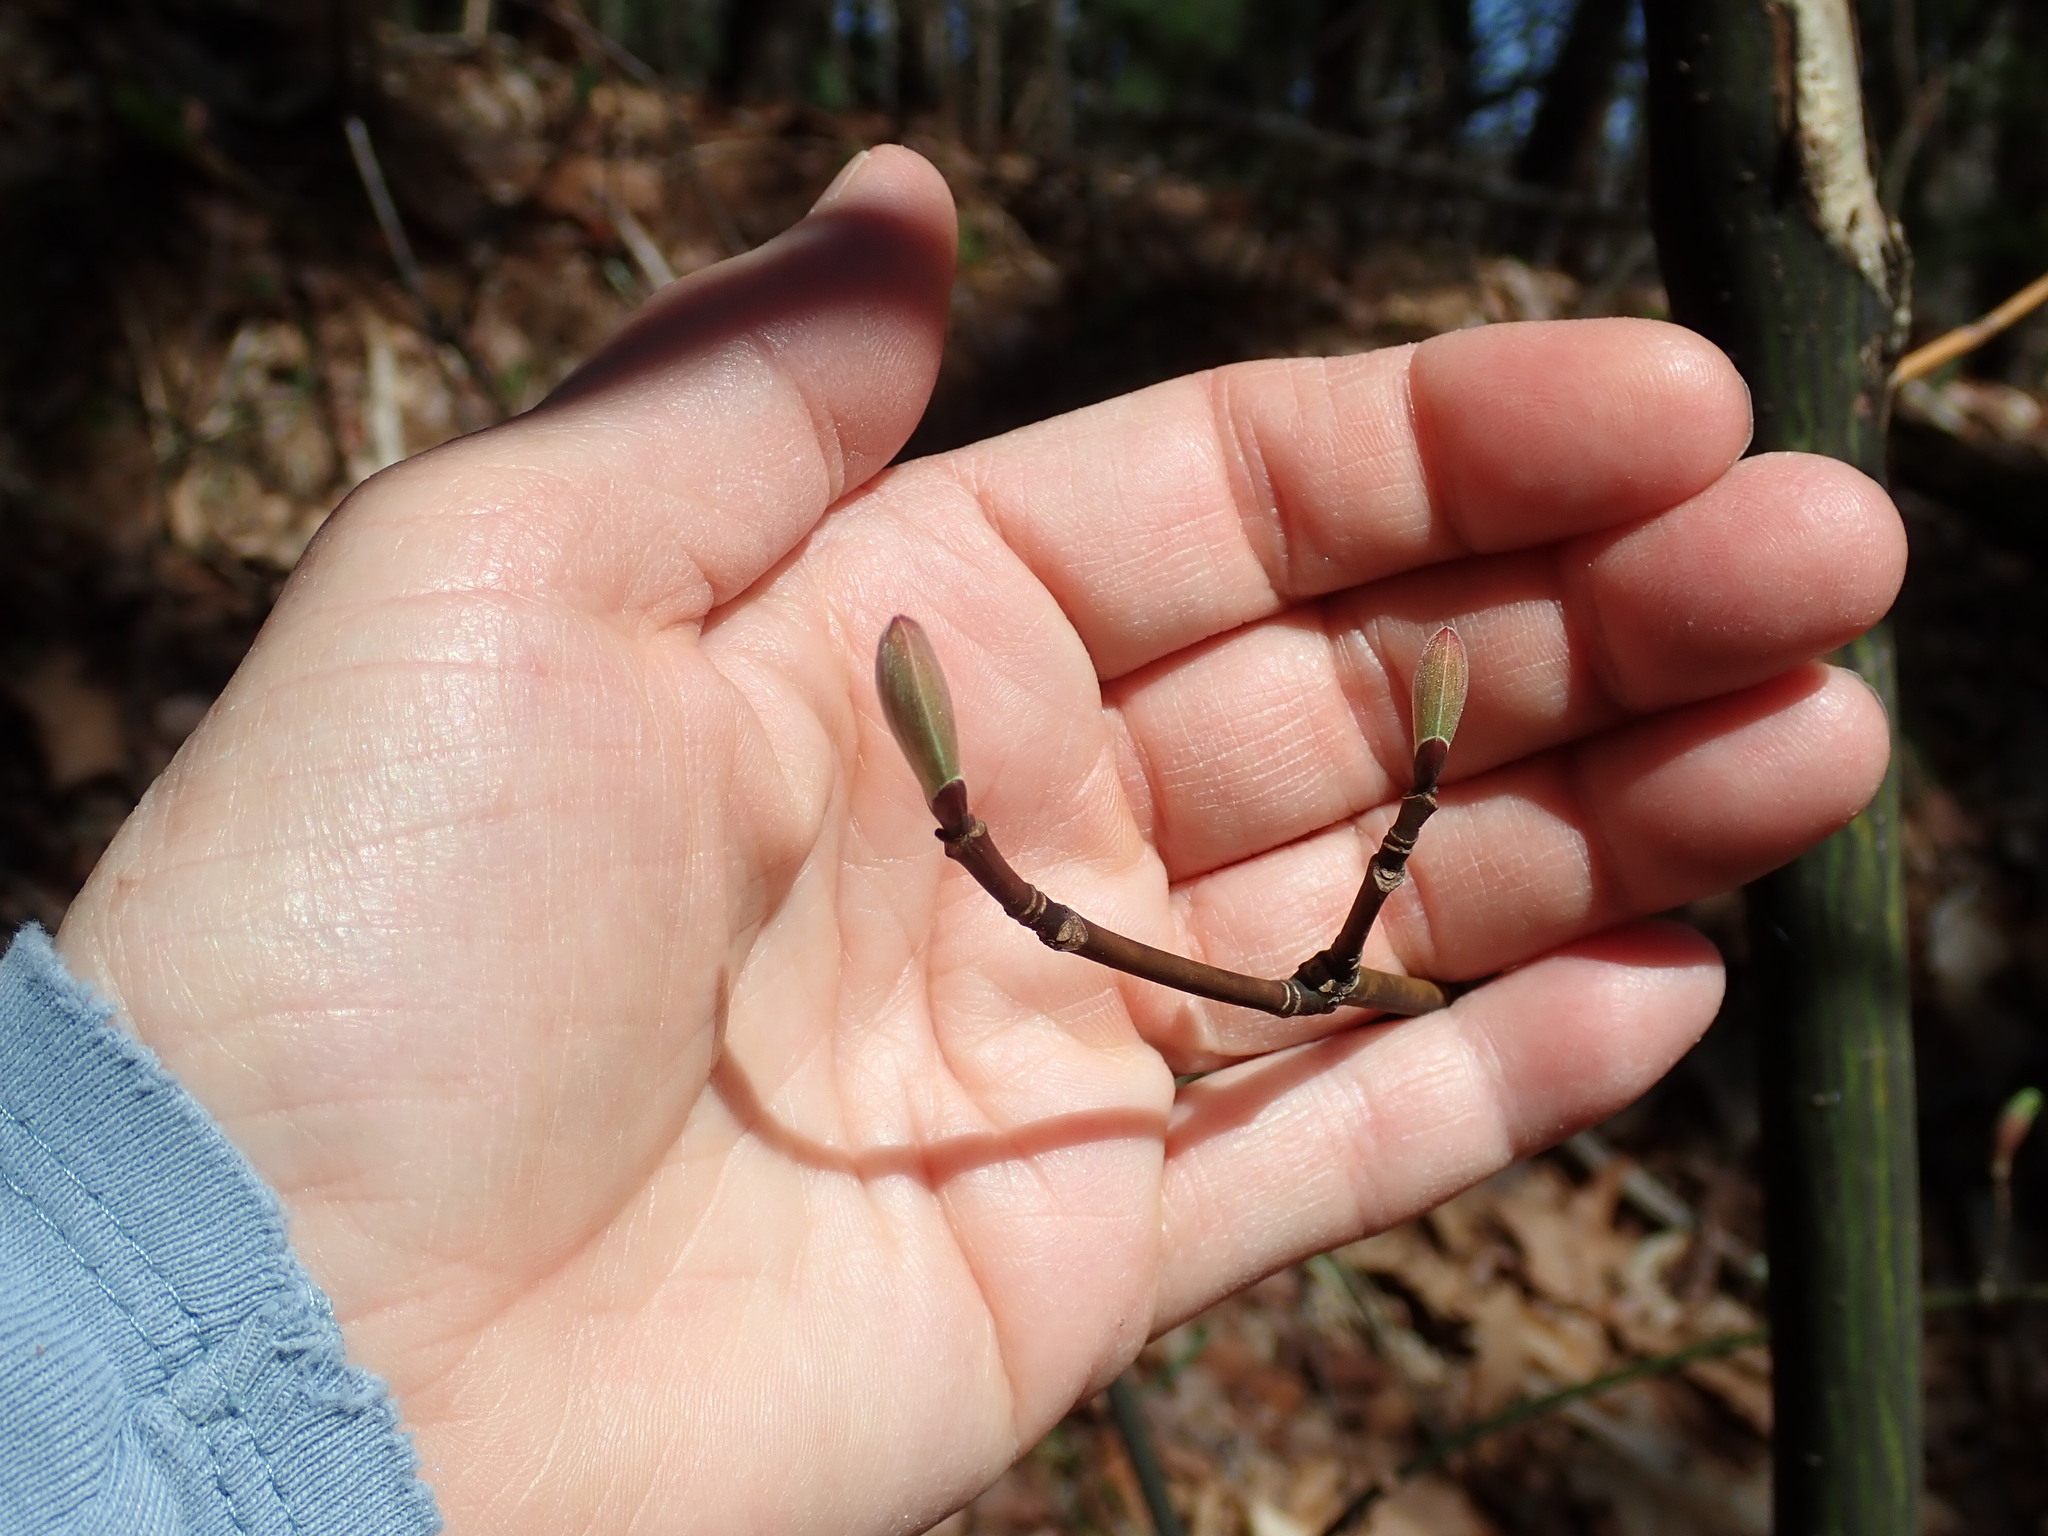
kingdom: Plantae
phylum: Tracheophyta
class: Magnoliopsida
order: Sapindales
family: Sapindaceae
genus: Acer
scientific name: Acer pensylvanicum
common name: Moosewood
